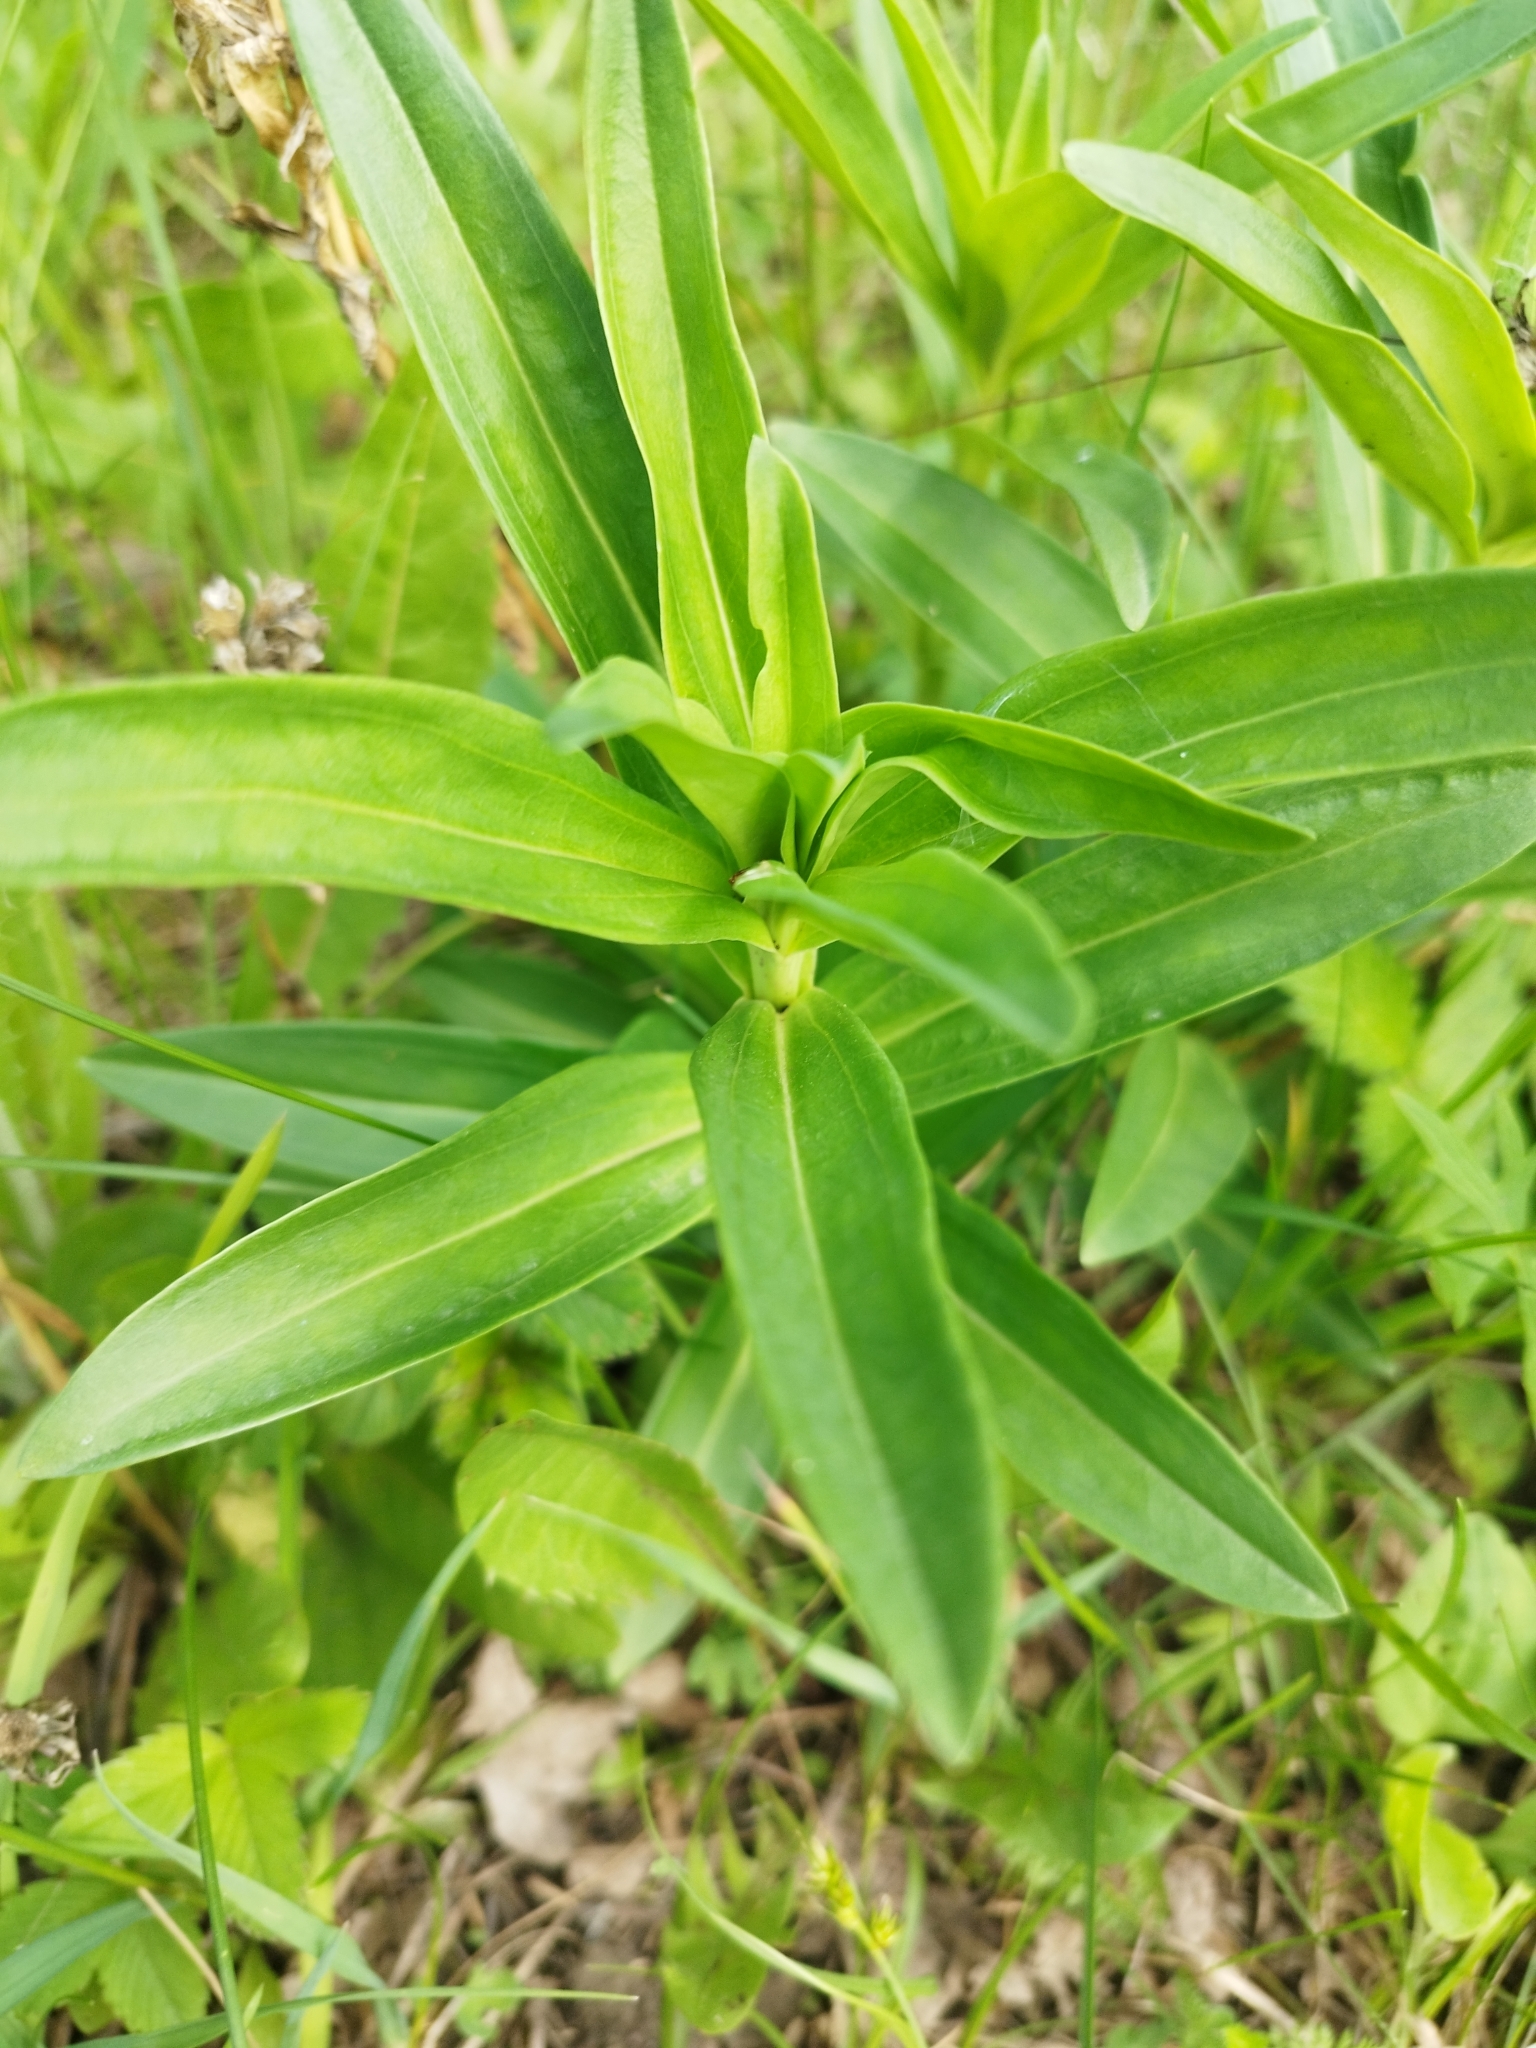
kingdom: Plantae
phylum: Tracheophyta
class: Magnoliopsida
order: Gentianales
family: Gentianaceae
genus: Gentiana
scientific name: Gentiana cruciata
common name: Cross gentian
